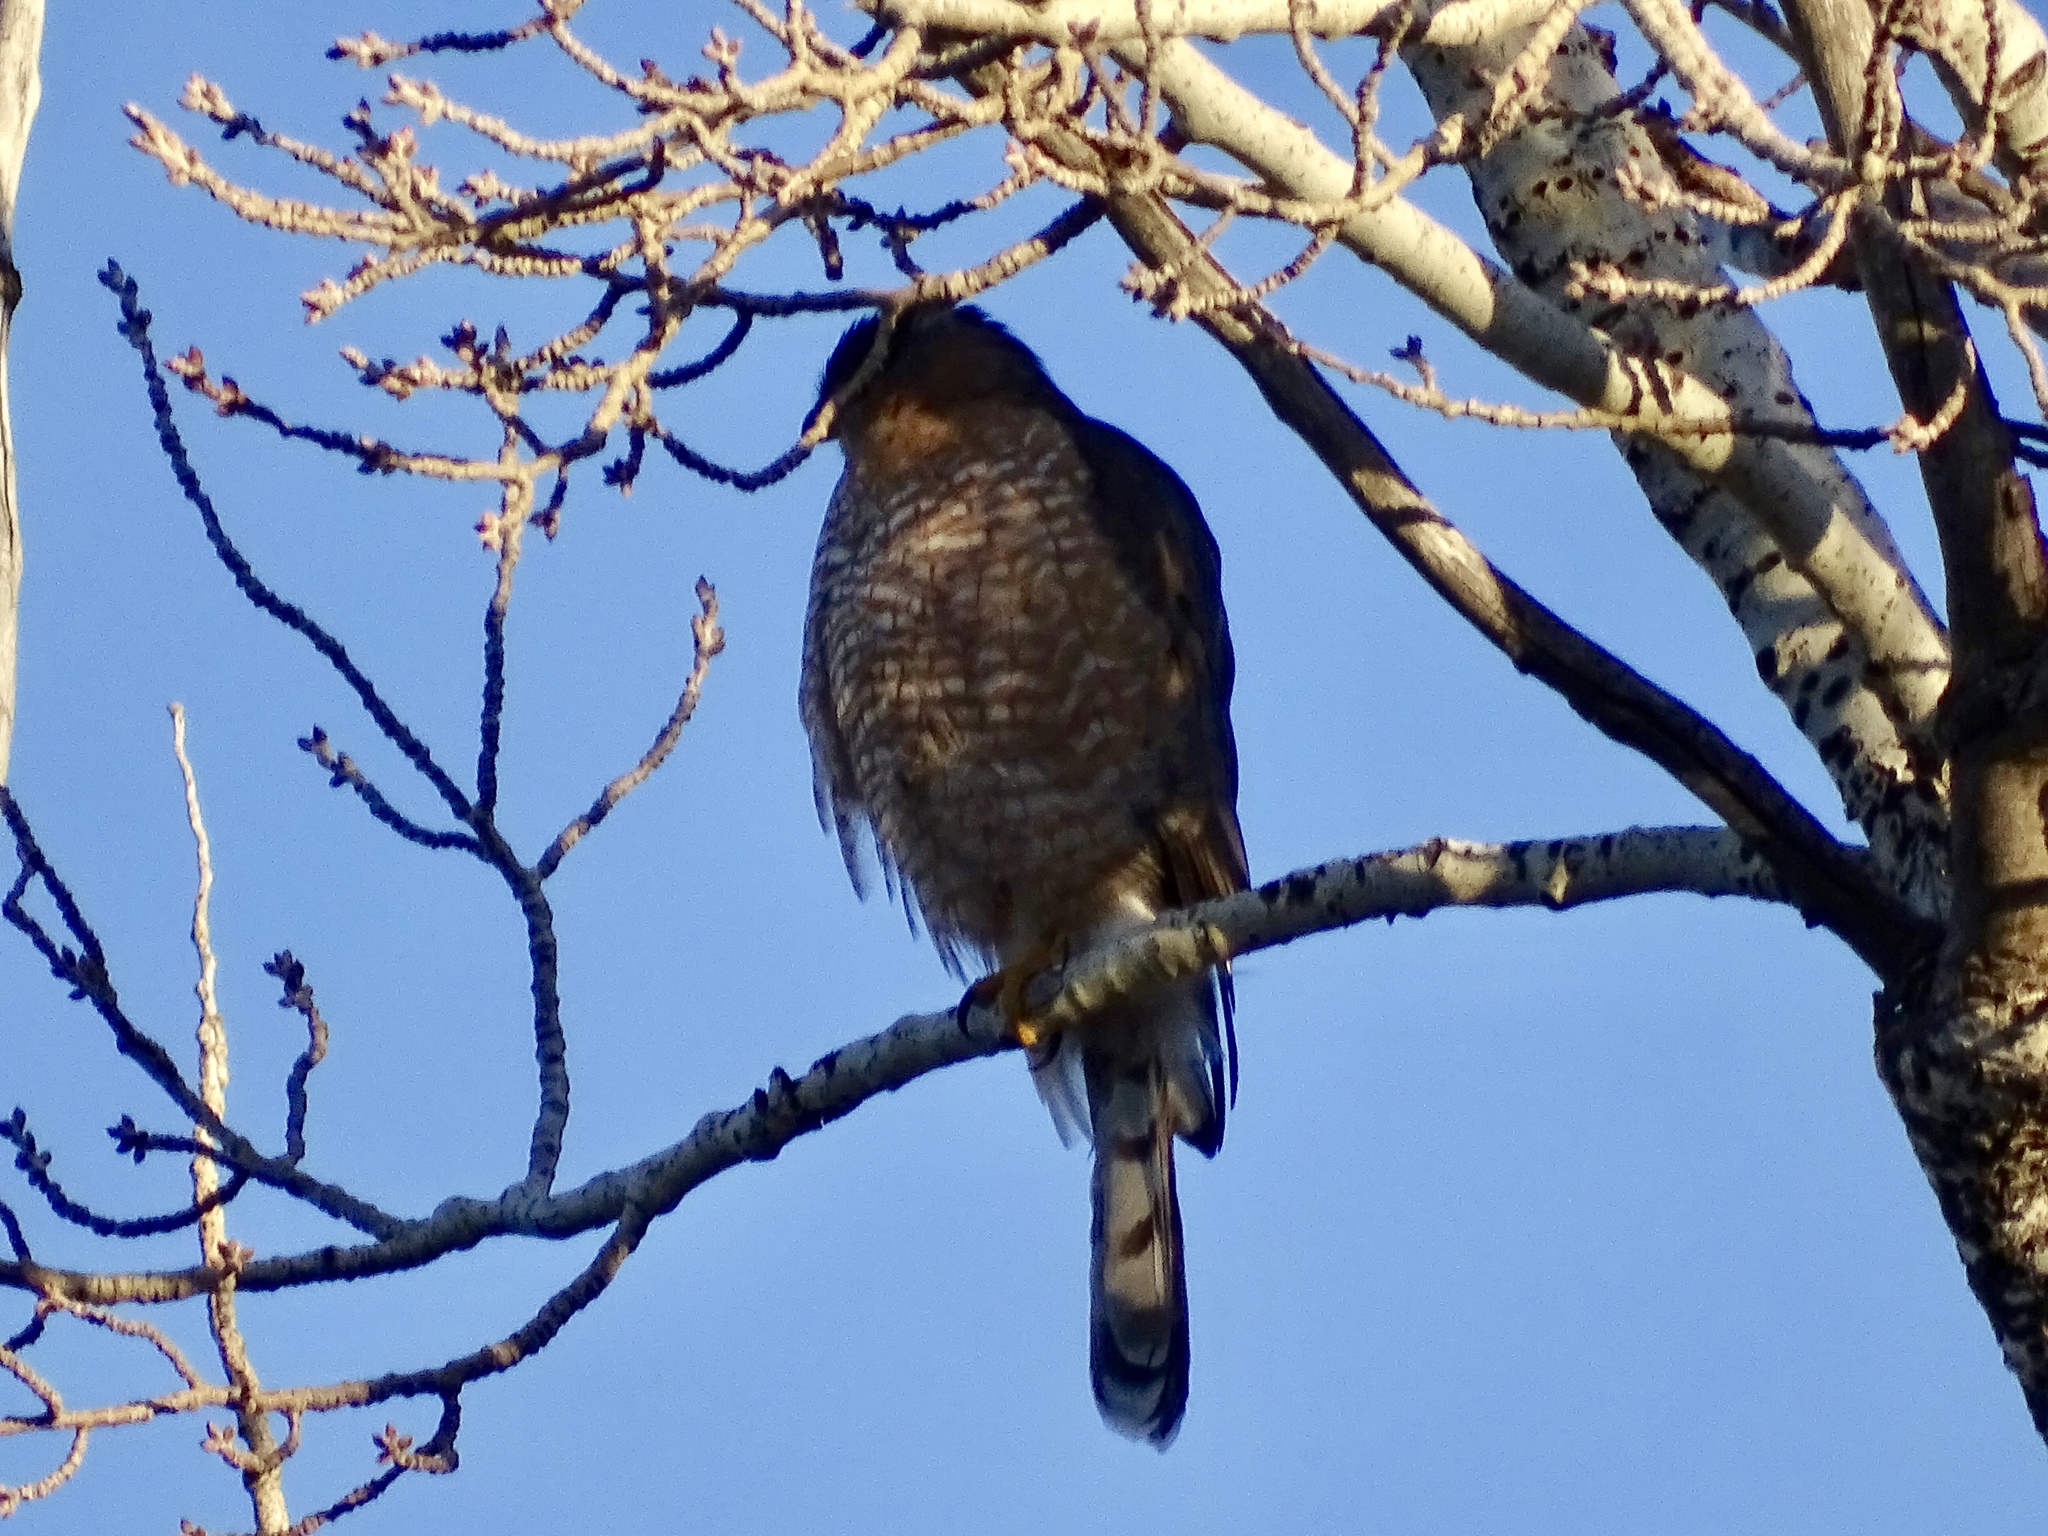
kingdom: Animalia
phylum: Chordata
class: Aves
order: Accipitriformes
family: Accipitridae
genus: Accipiter
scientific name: Accipiter cooperii
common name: Cooper's hawk
